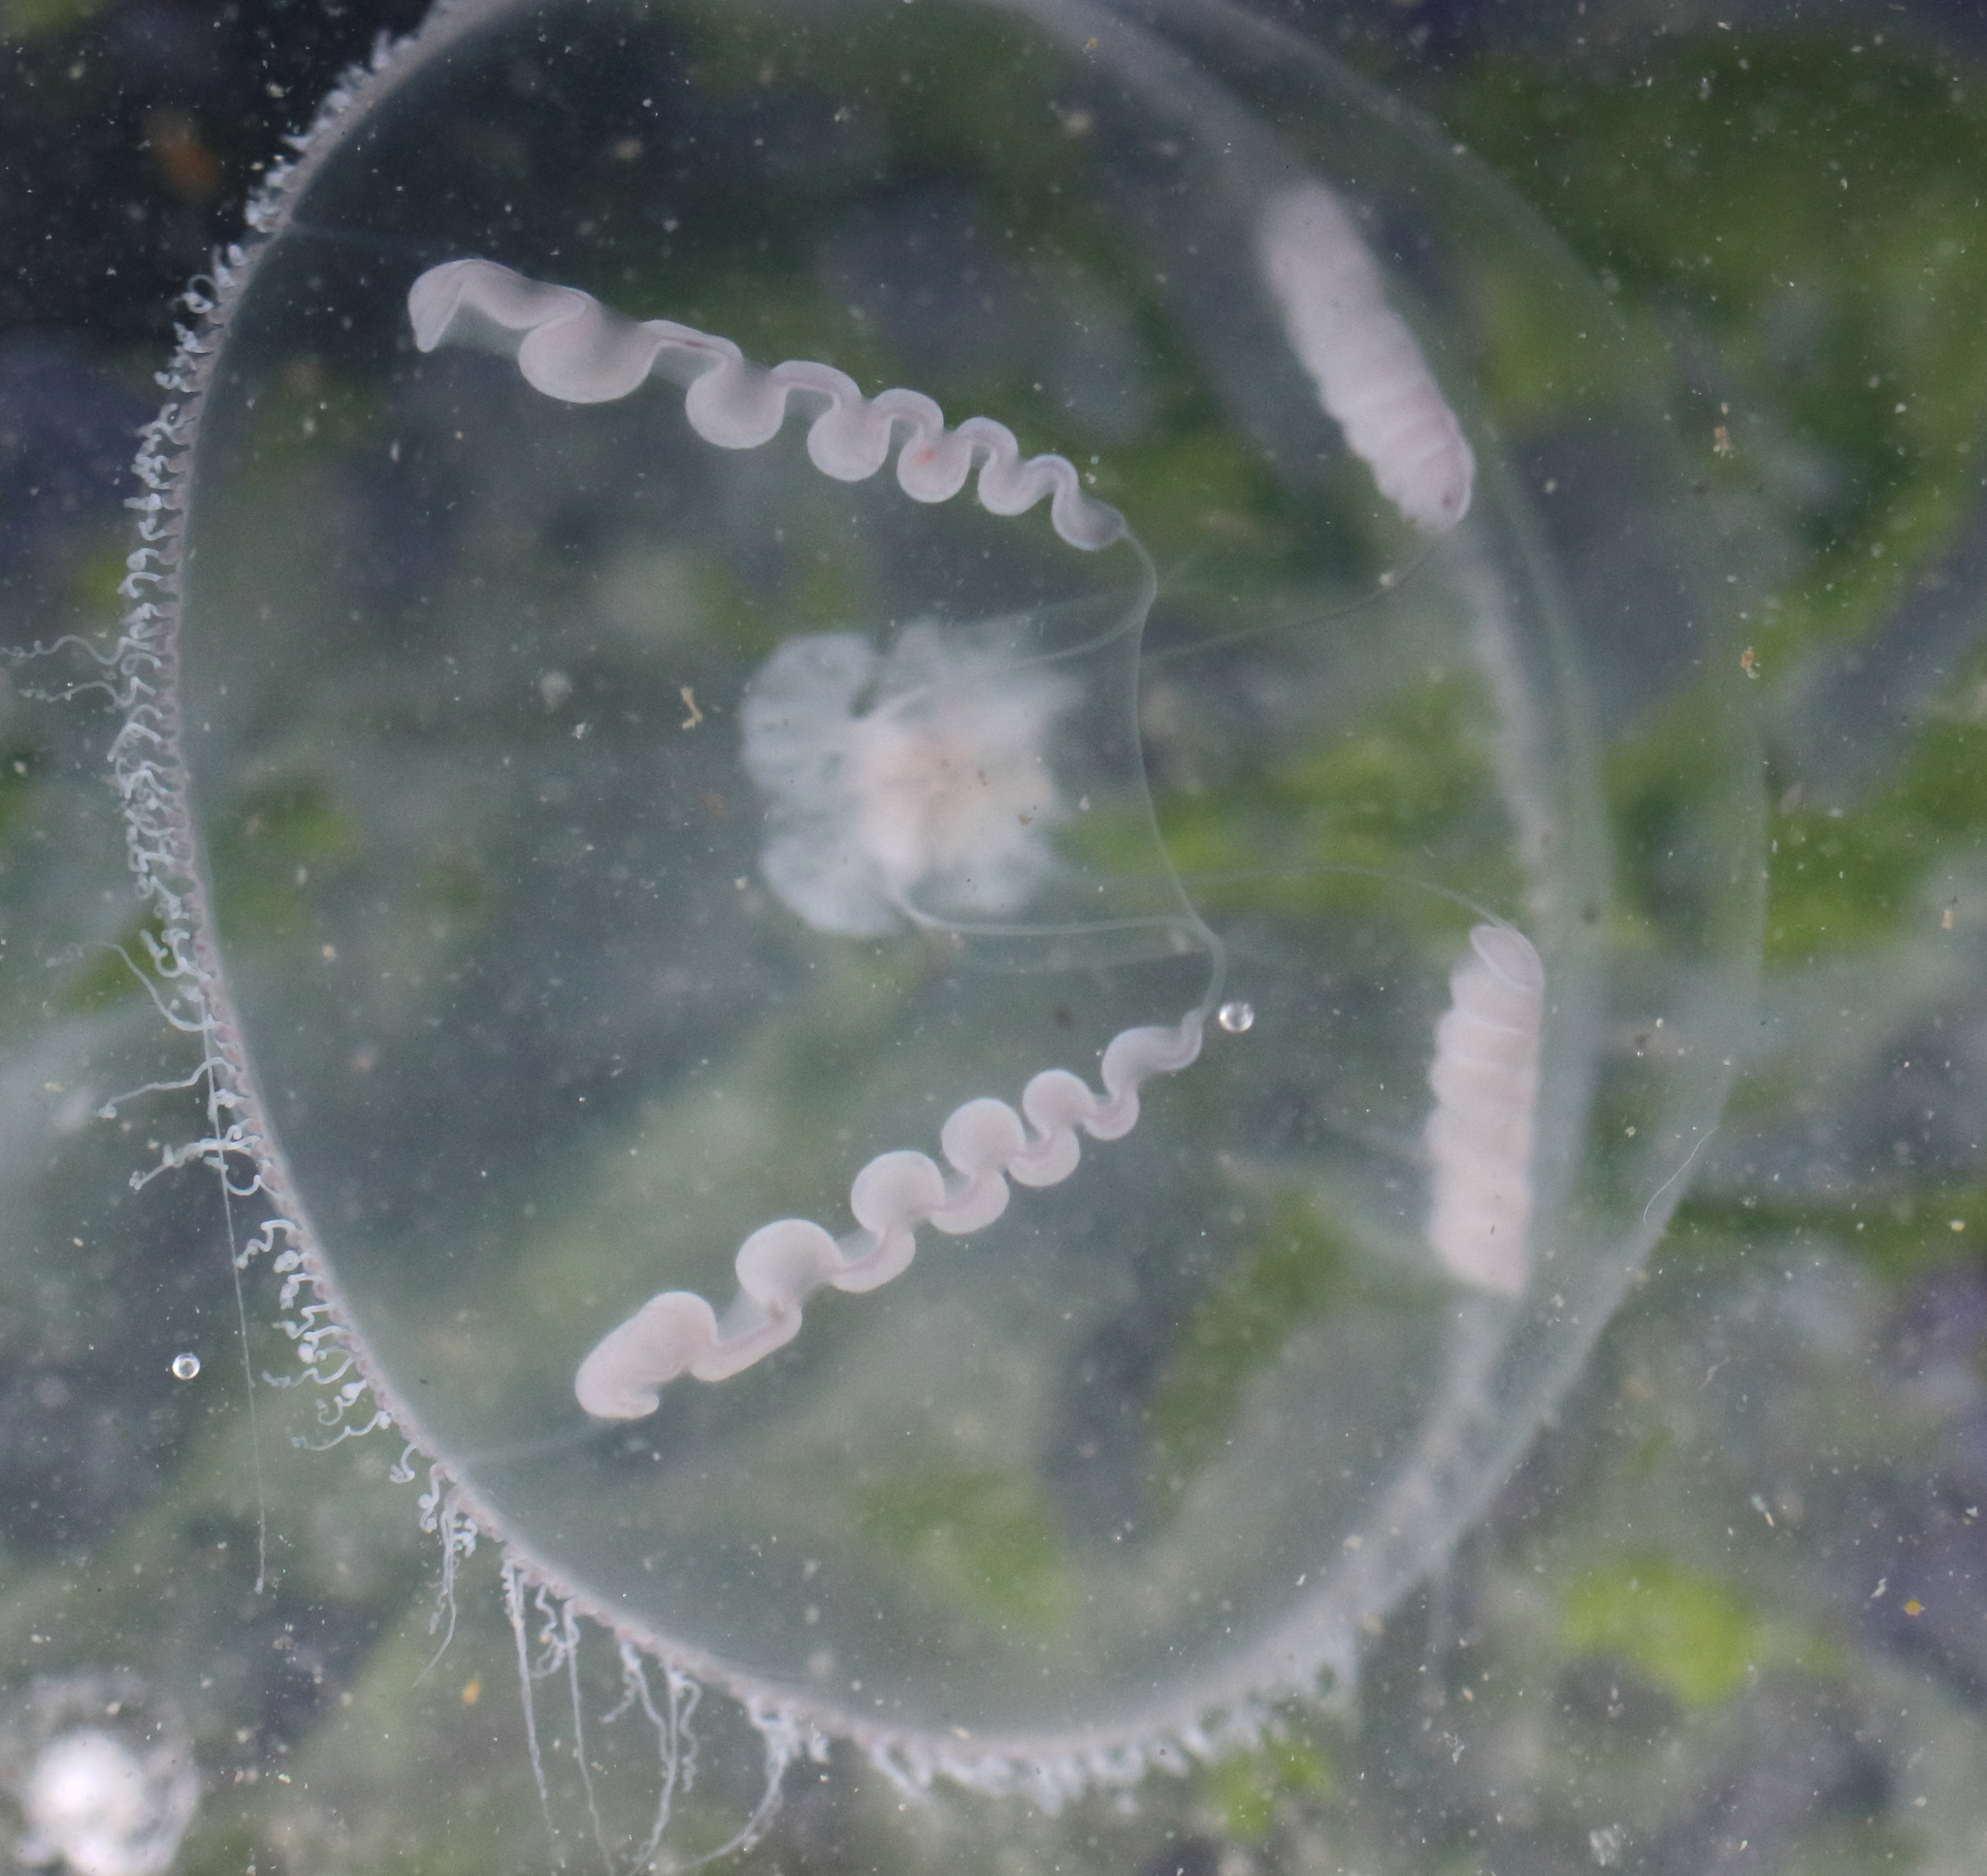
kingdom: Animalia
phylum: Cnidaria
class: Hydrozoa
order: Leptothecata
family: Eirenidae
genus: Eutonina
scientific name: Eutonina indicans
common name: Umbrella jellyfish
